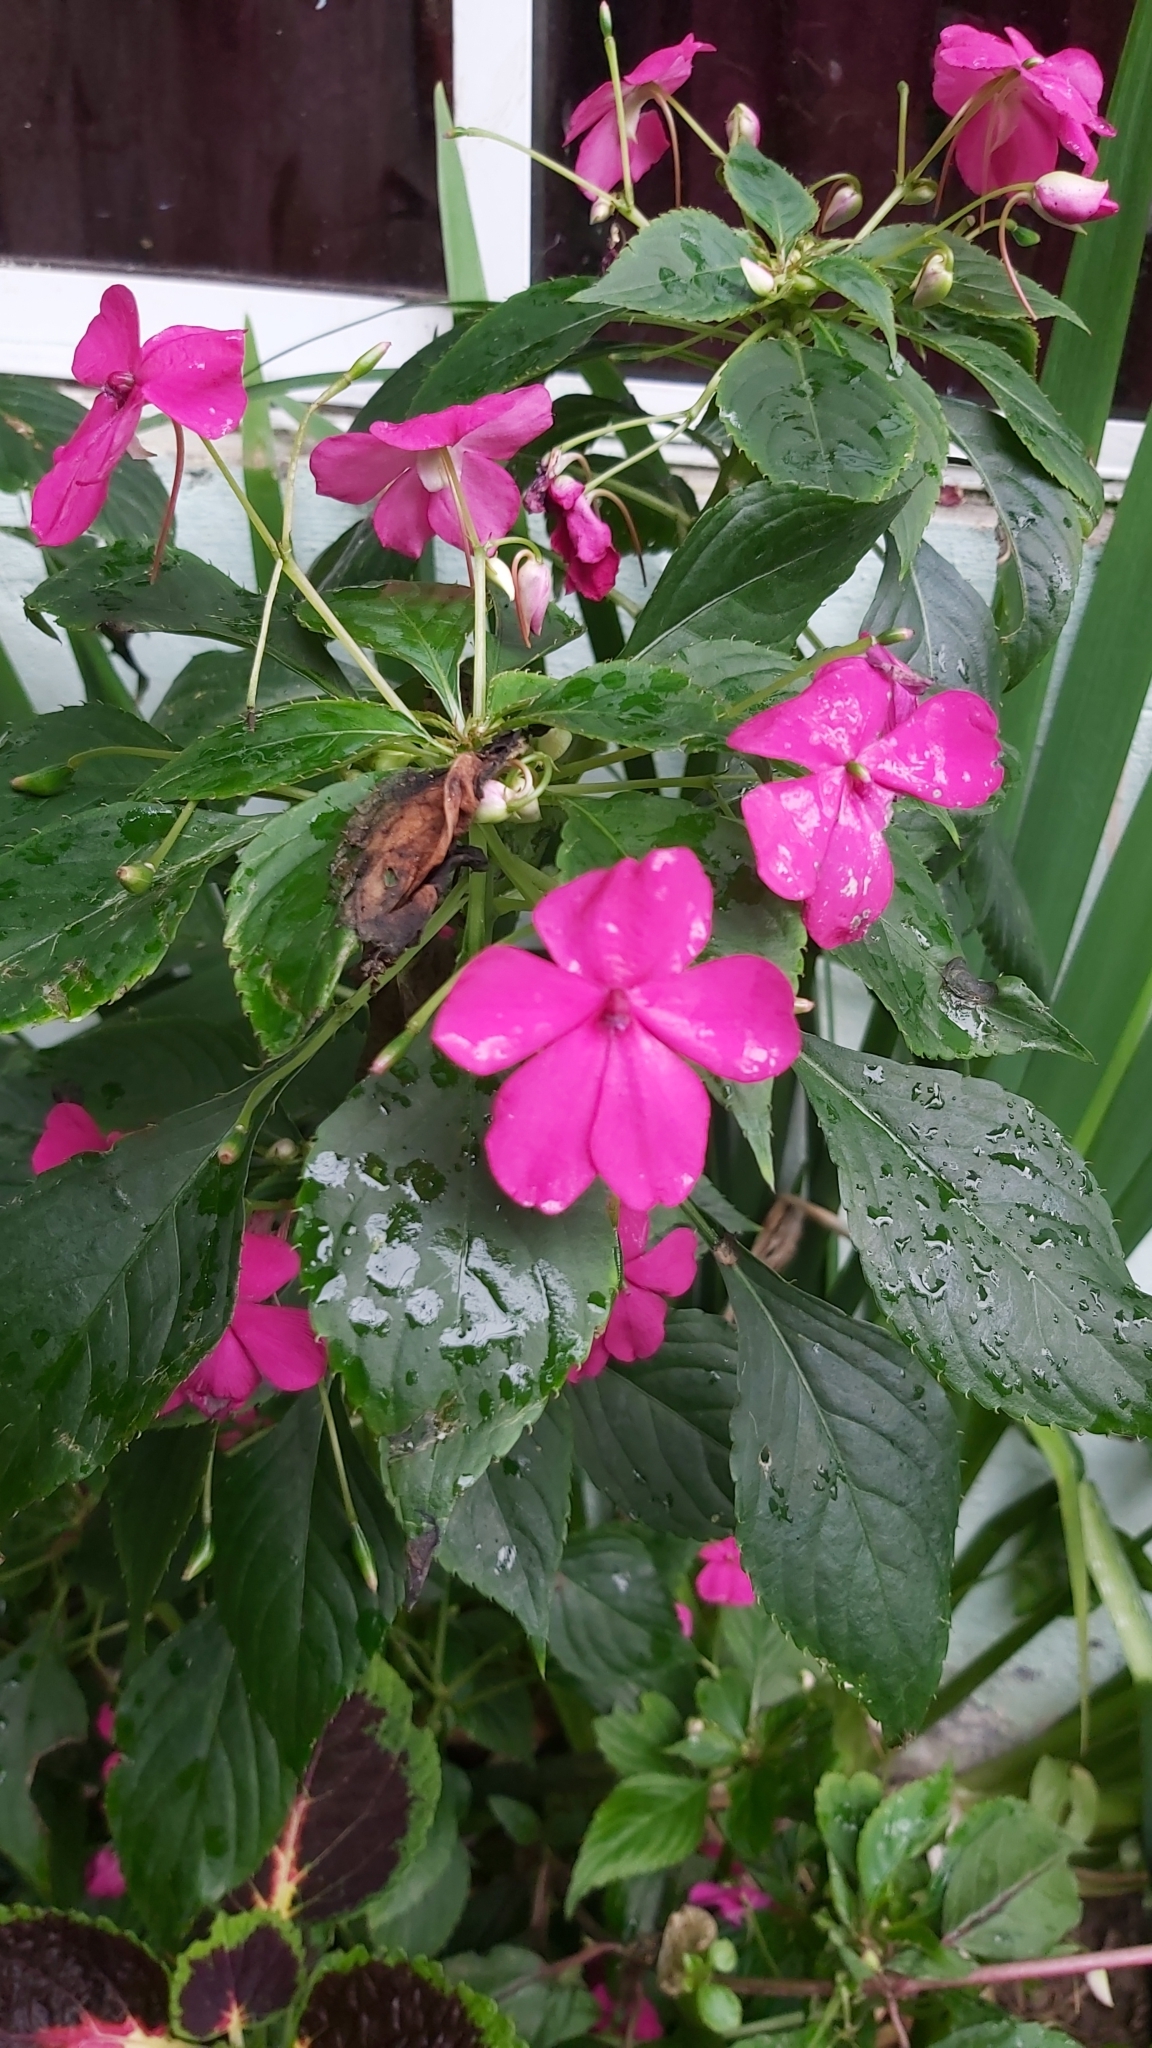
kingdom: Plantae
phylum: Tracheophyta
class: Magnoliopsida
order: Ericales
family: Balsaminaceae
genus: Impatiens
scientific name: Impatiens walleriana
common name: Buzzy lizzy
